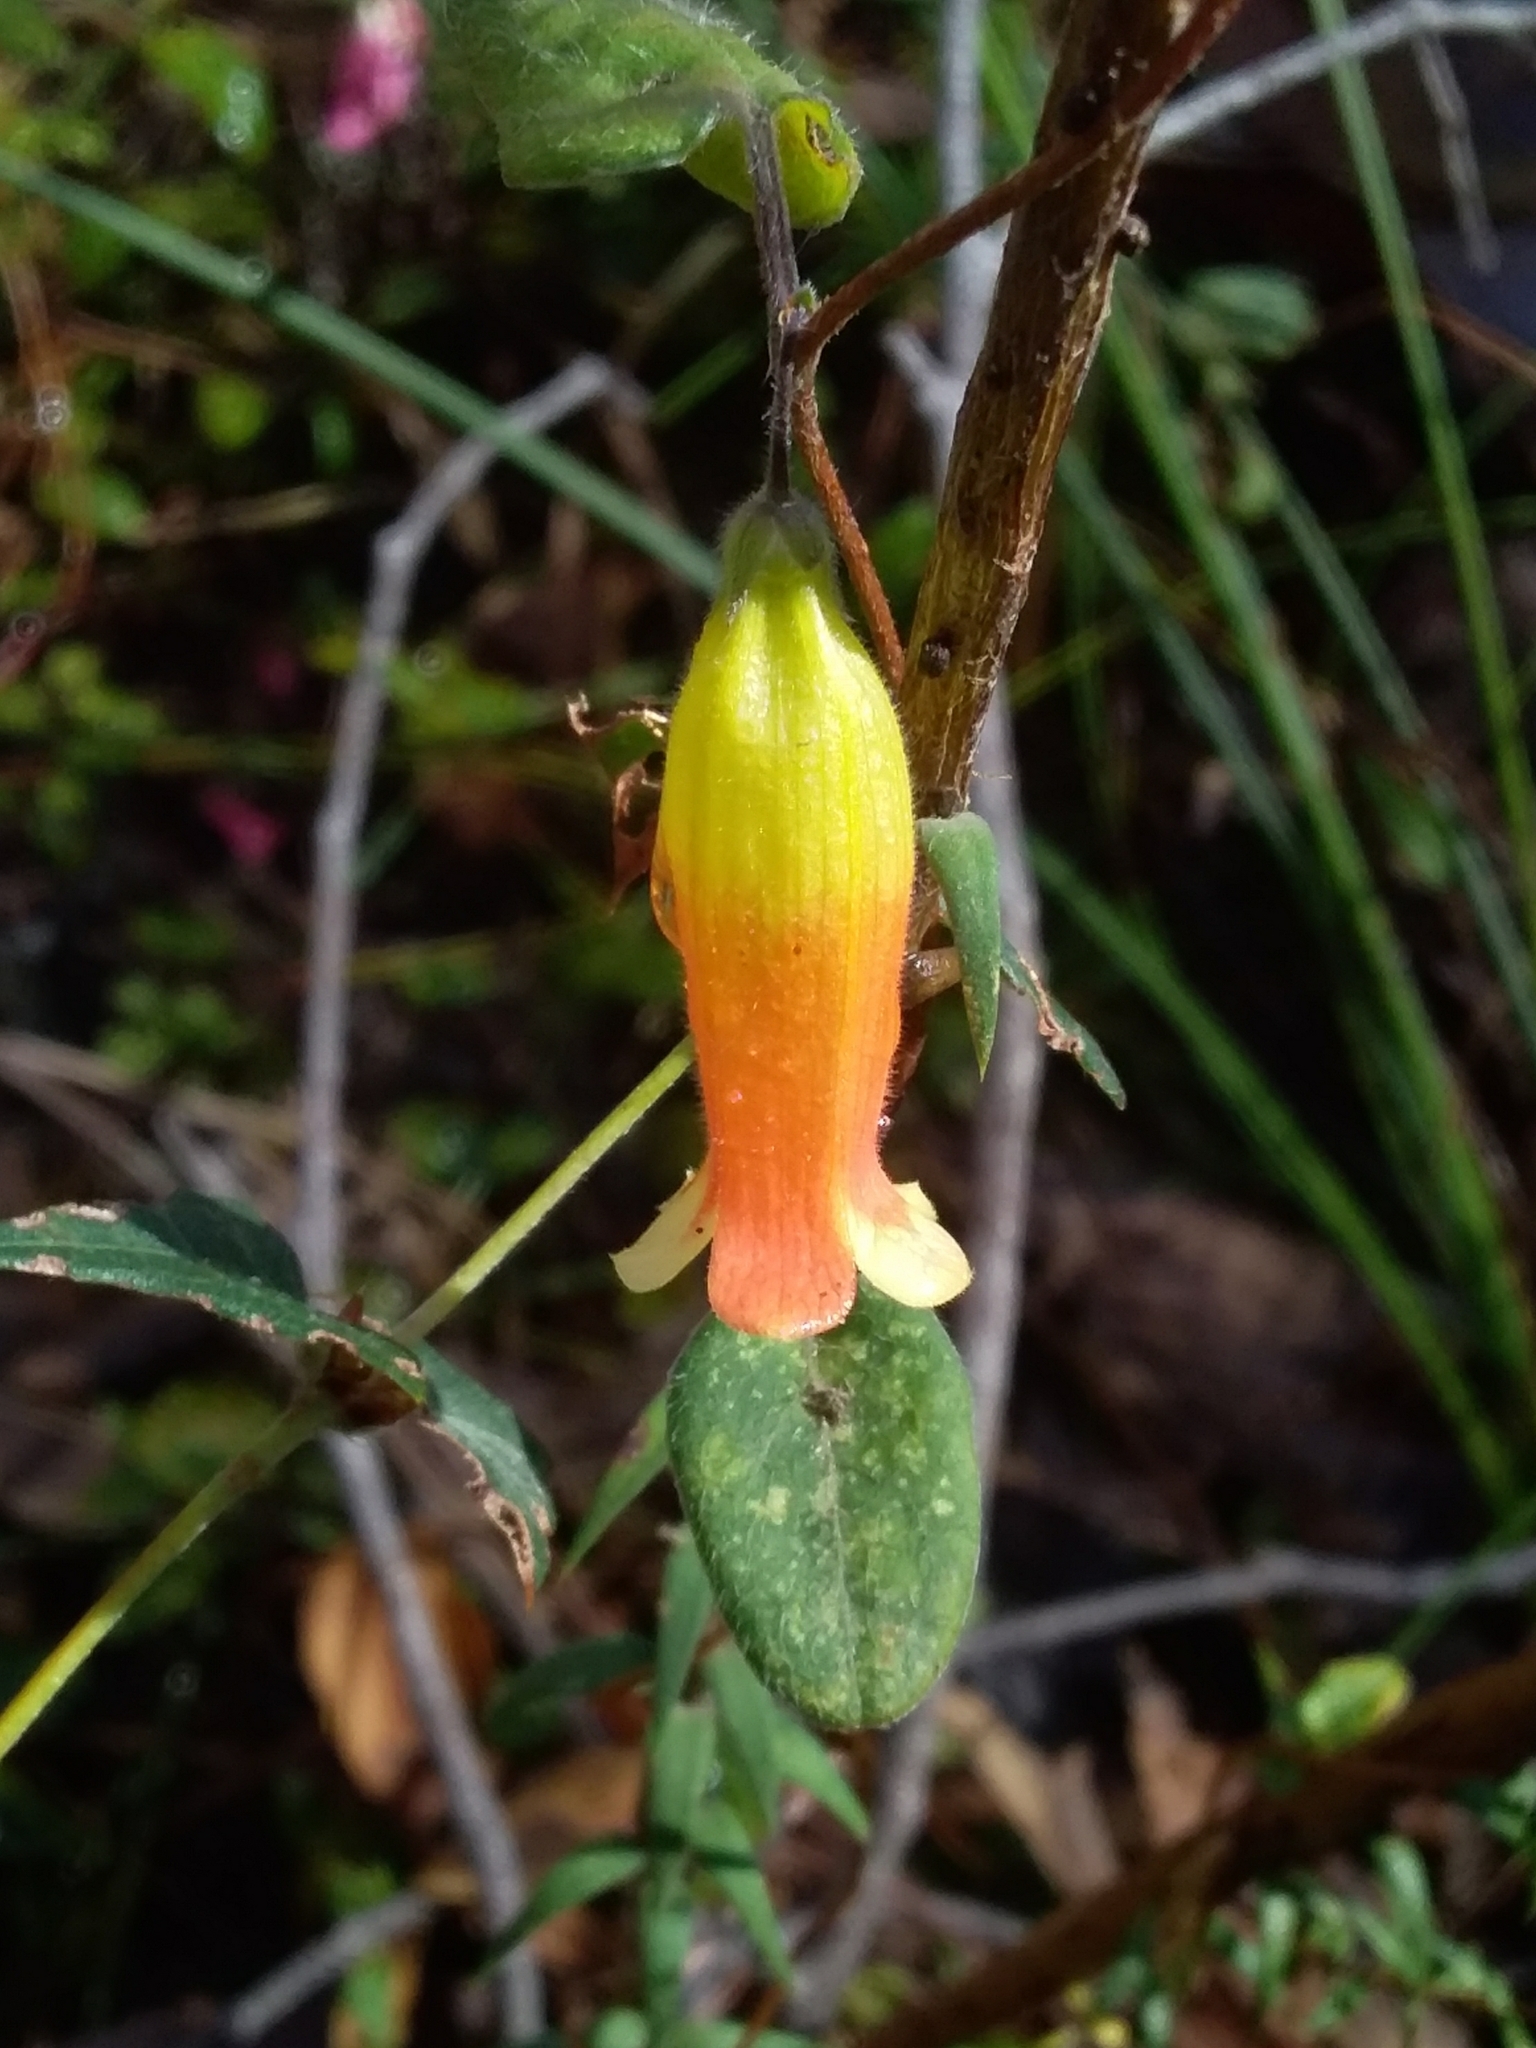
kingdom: Plantae
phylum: Tracheophyta
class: Magnoliopsida
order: Apiales
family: Pittosporaceae
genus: Marianthus
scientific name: Marianthus bignoniaceus
